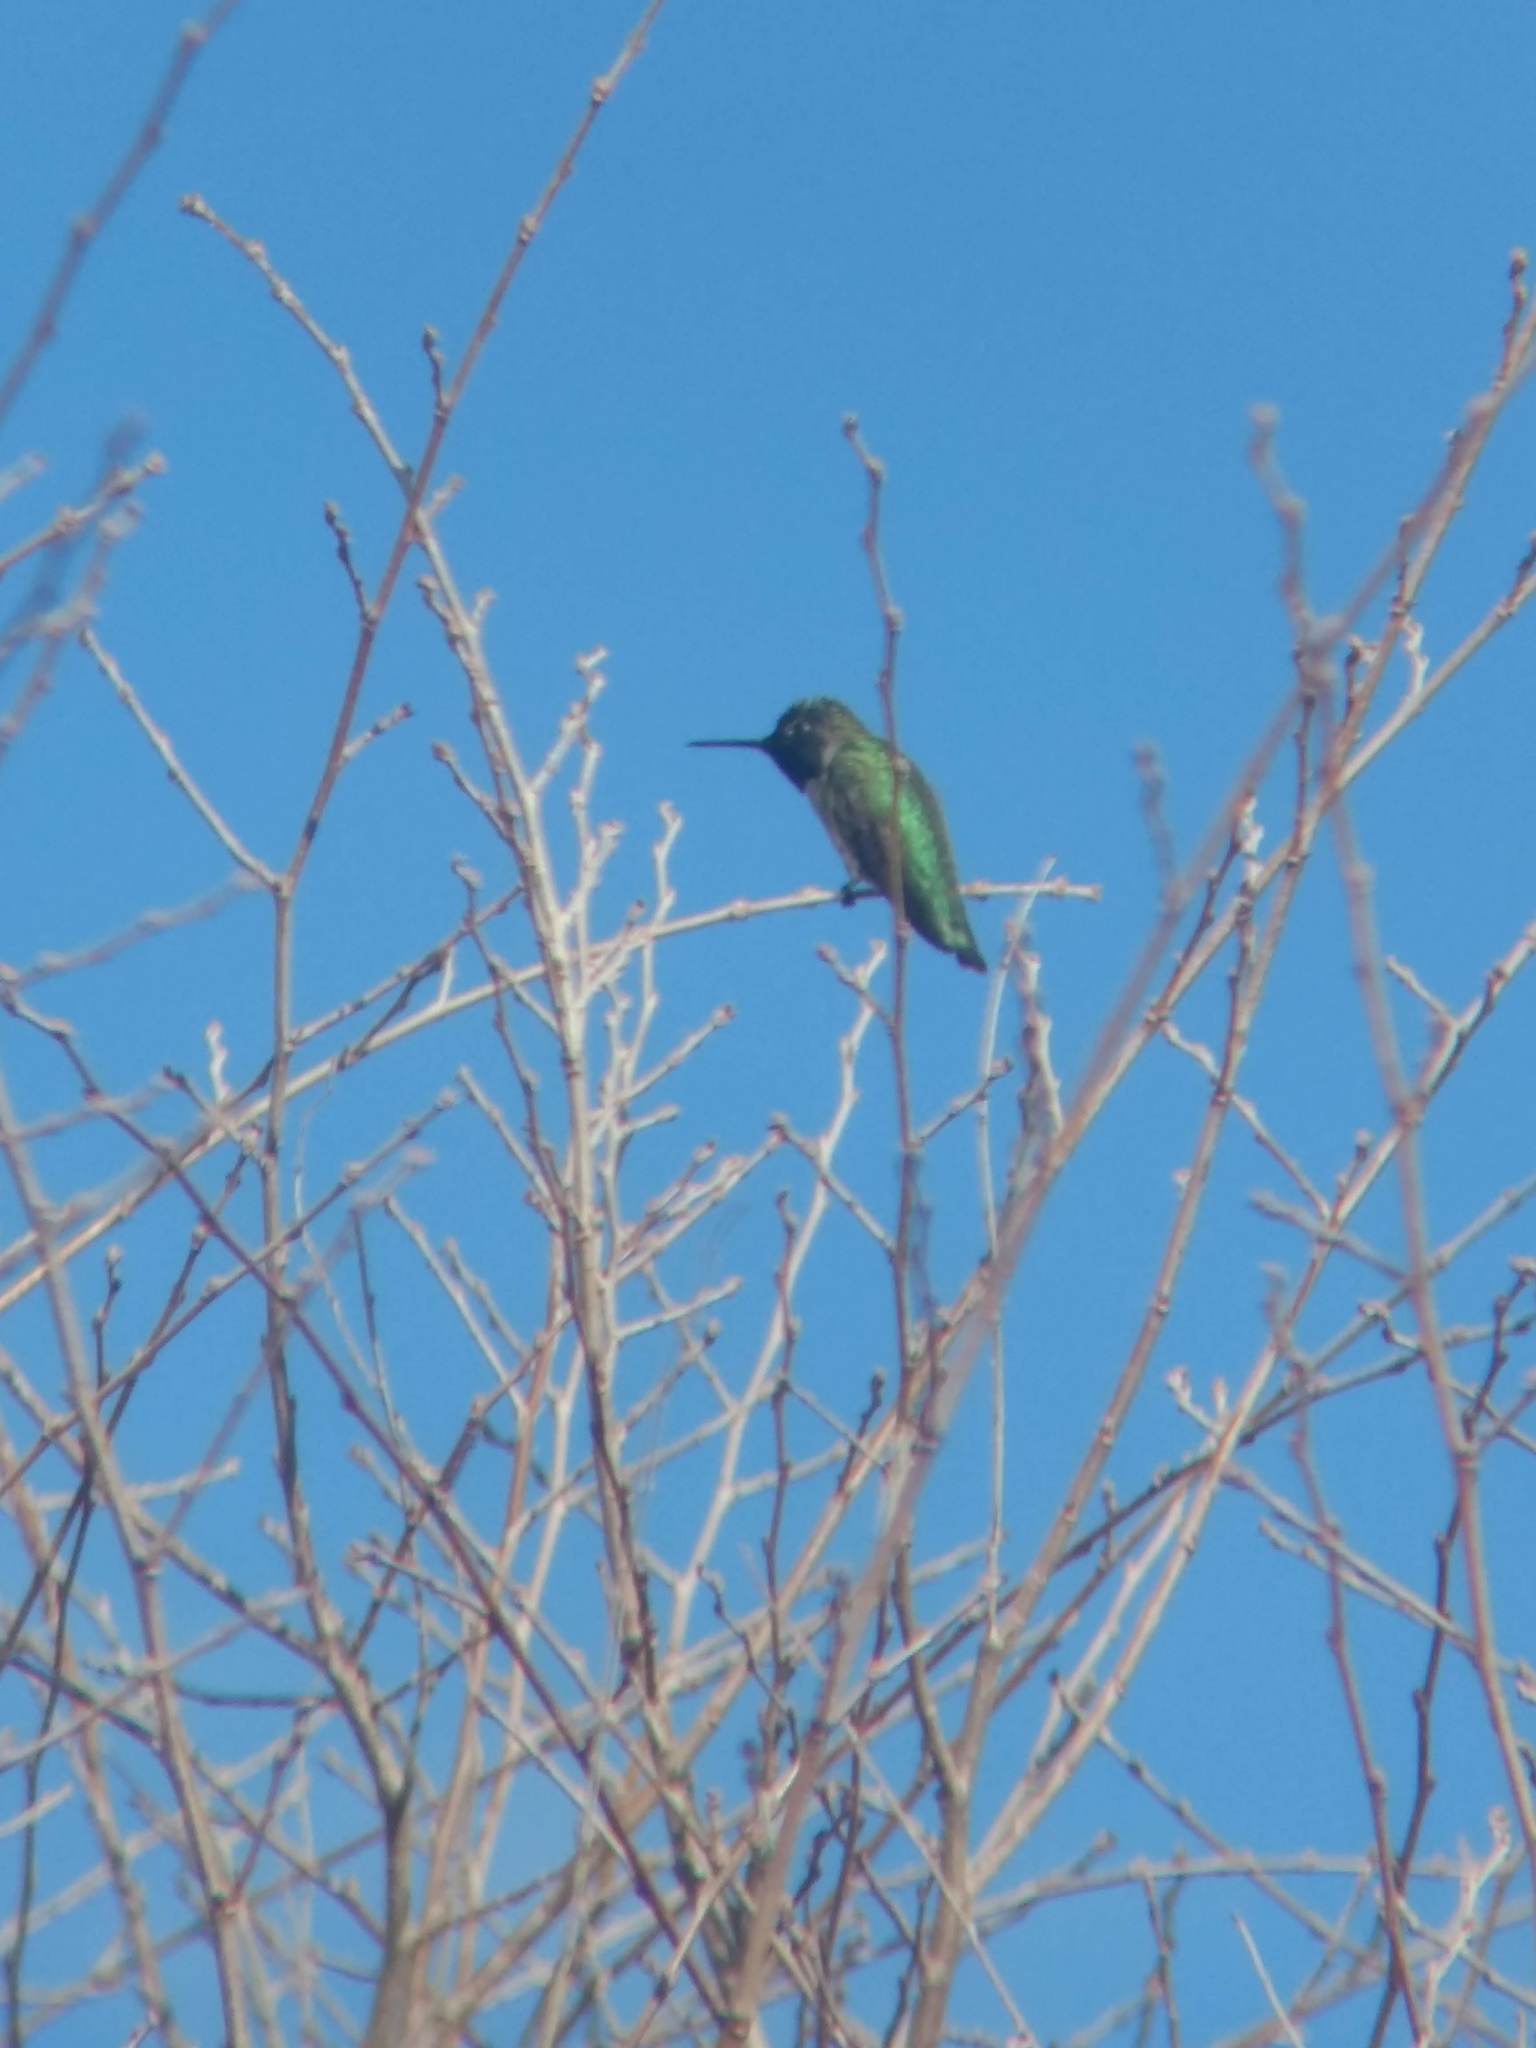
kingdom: Animalia
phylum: Chordata
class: Aves
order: Apodiformes
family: Trochilidae
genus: Calypte
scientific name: Calypte anna
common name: Anna's hummingbird
